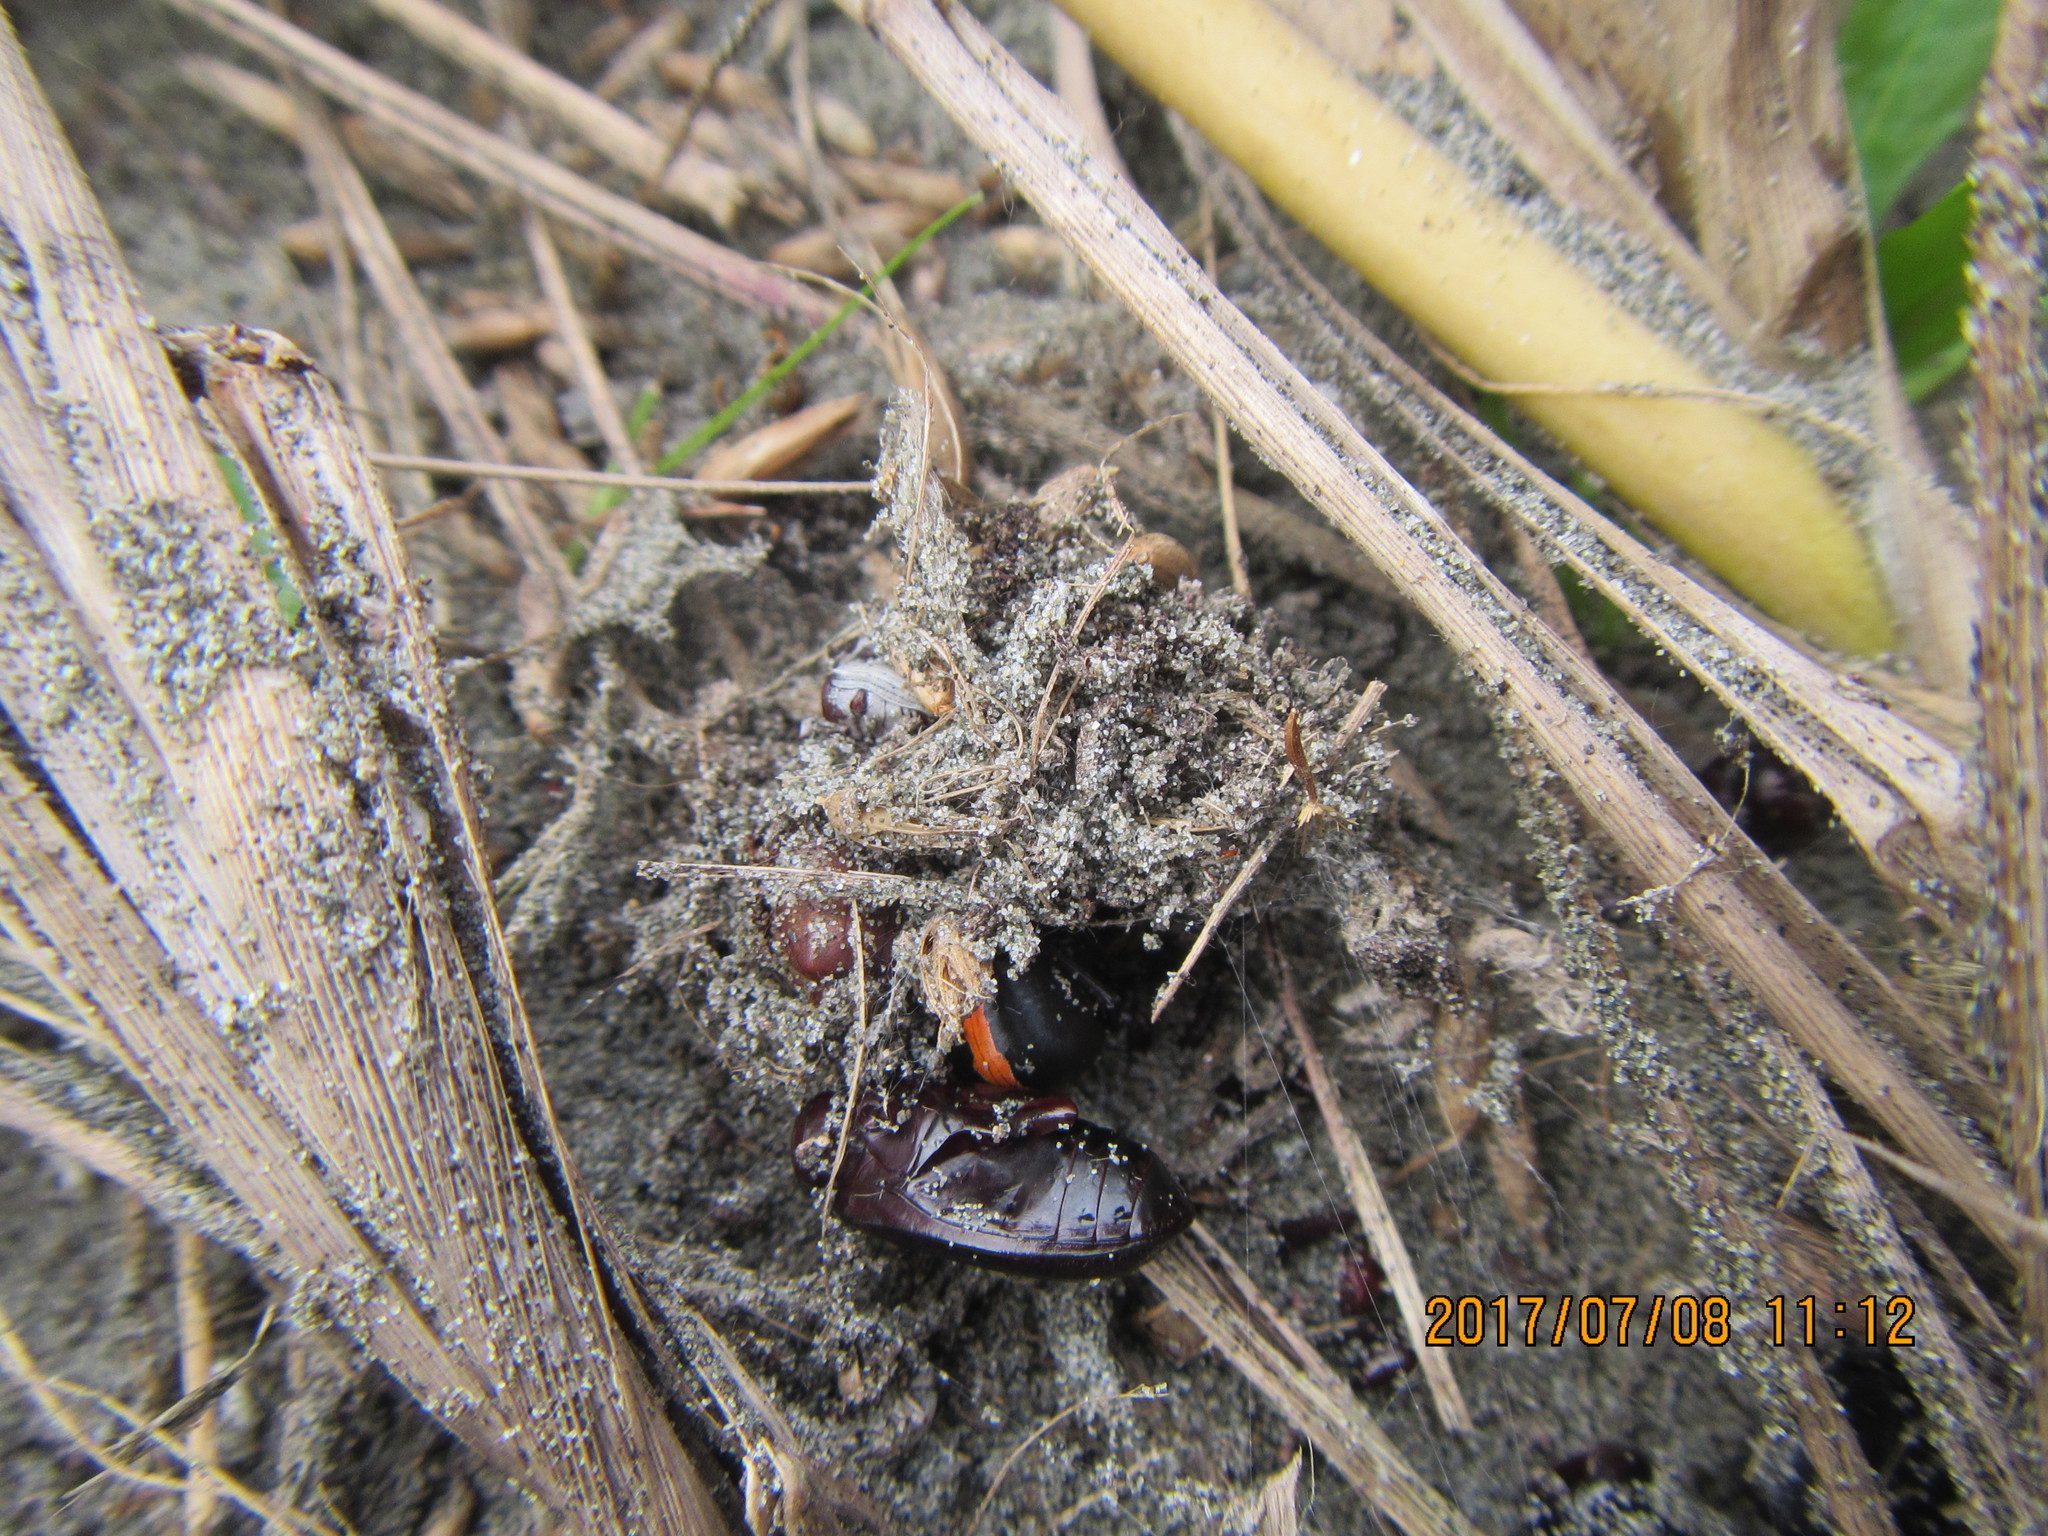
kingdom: Animalia
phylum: Arthropoda
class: Arachnida
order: Araneae
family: Theridiidae
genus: Latrodectus
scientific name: Latrodectus katipo
